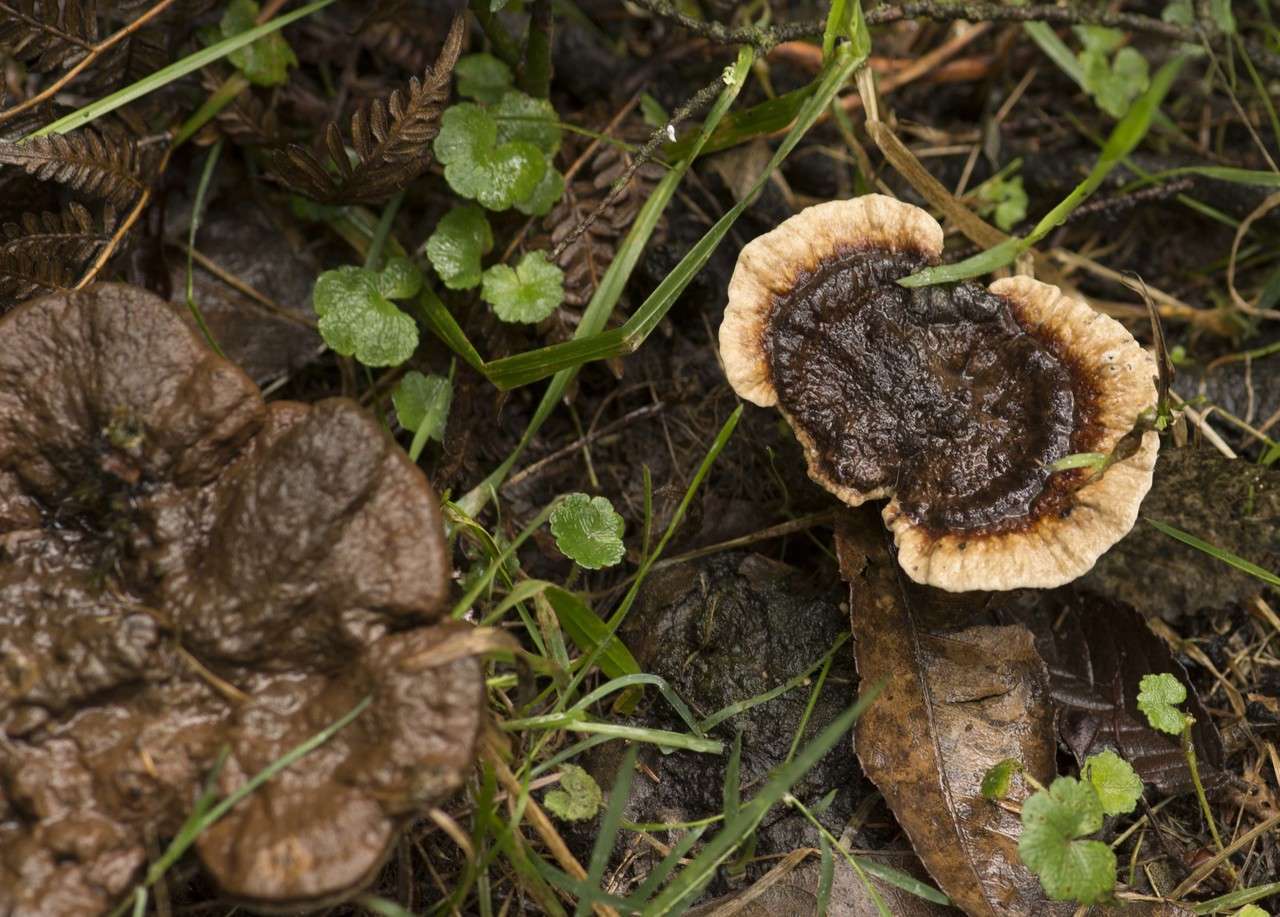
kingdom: Fungi
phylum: Basidiomycota
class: Agaricomycetes
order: Polyporales
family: Ganodermataceae
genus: Sanguinoderma
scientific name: Sanguinoderma rude
